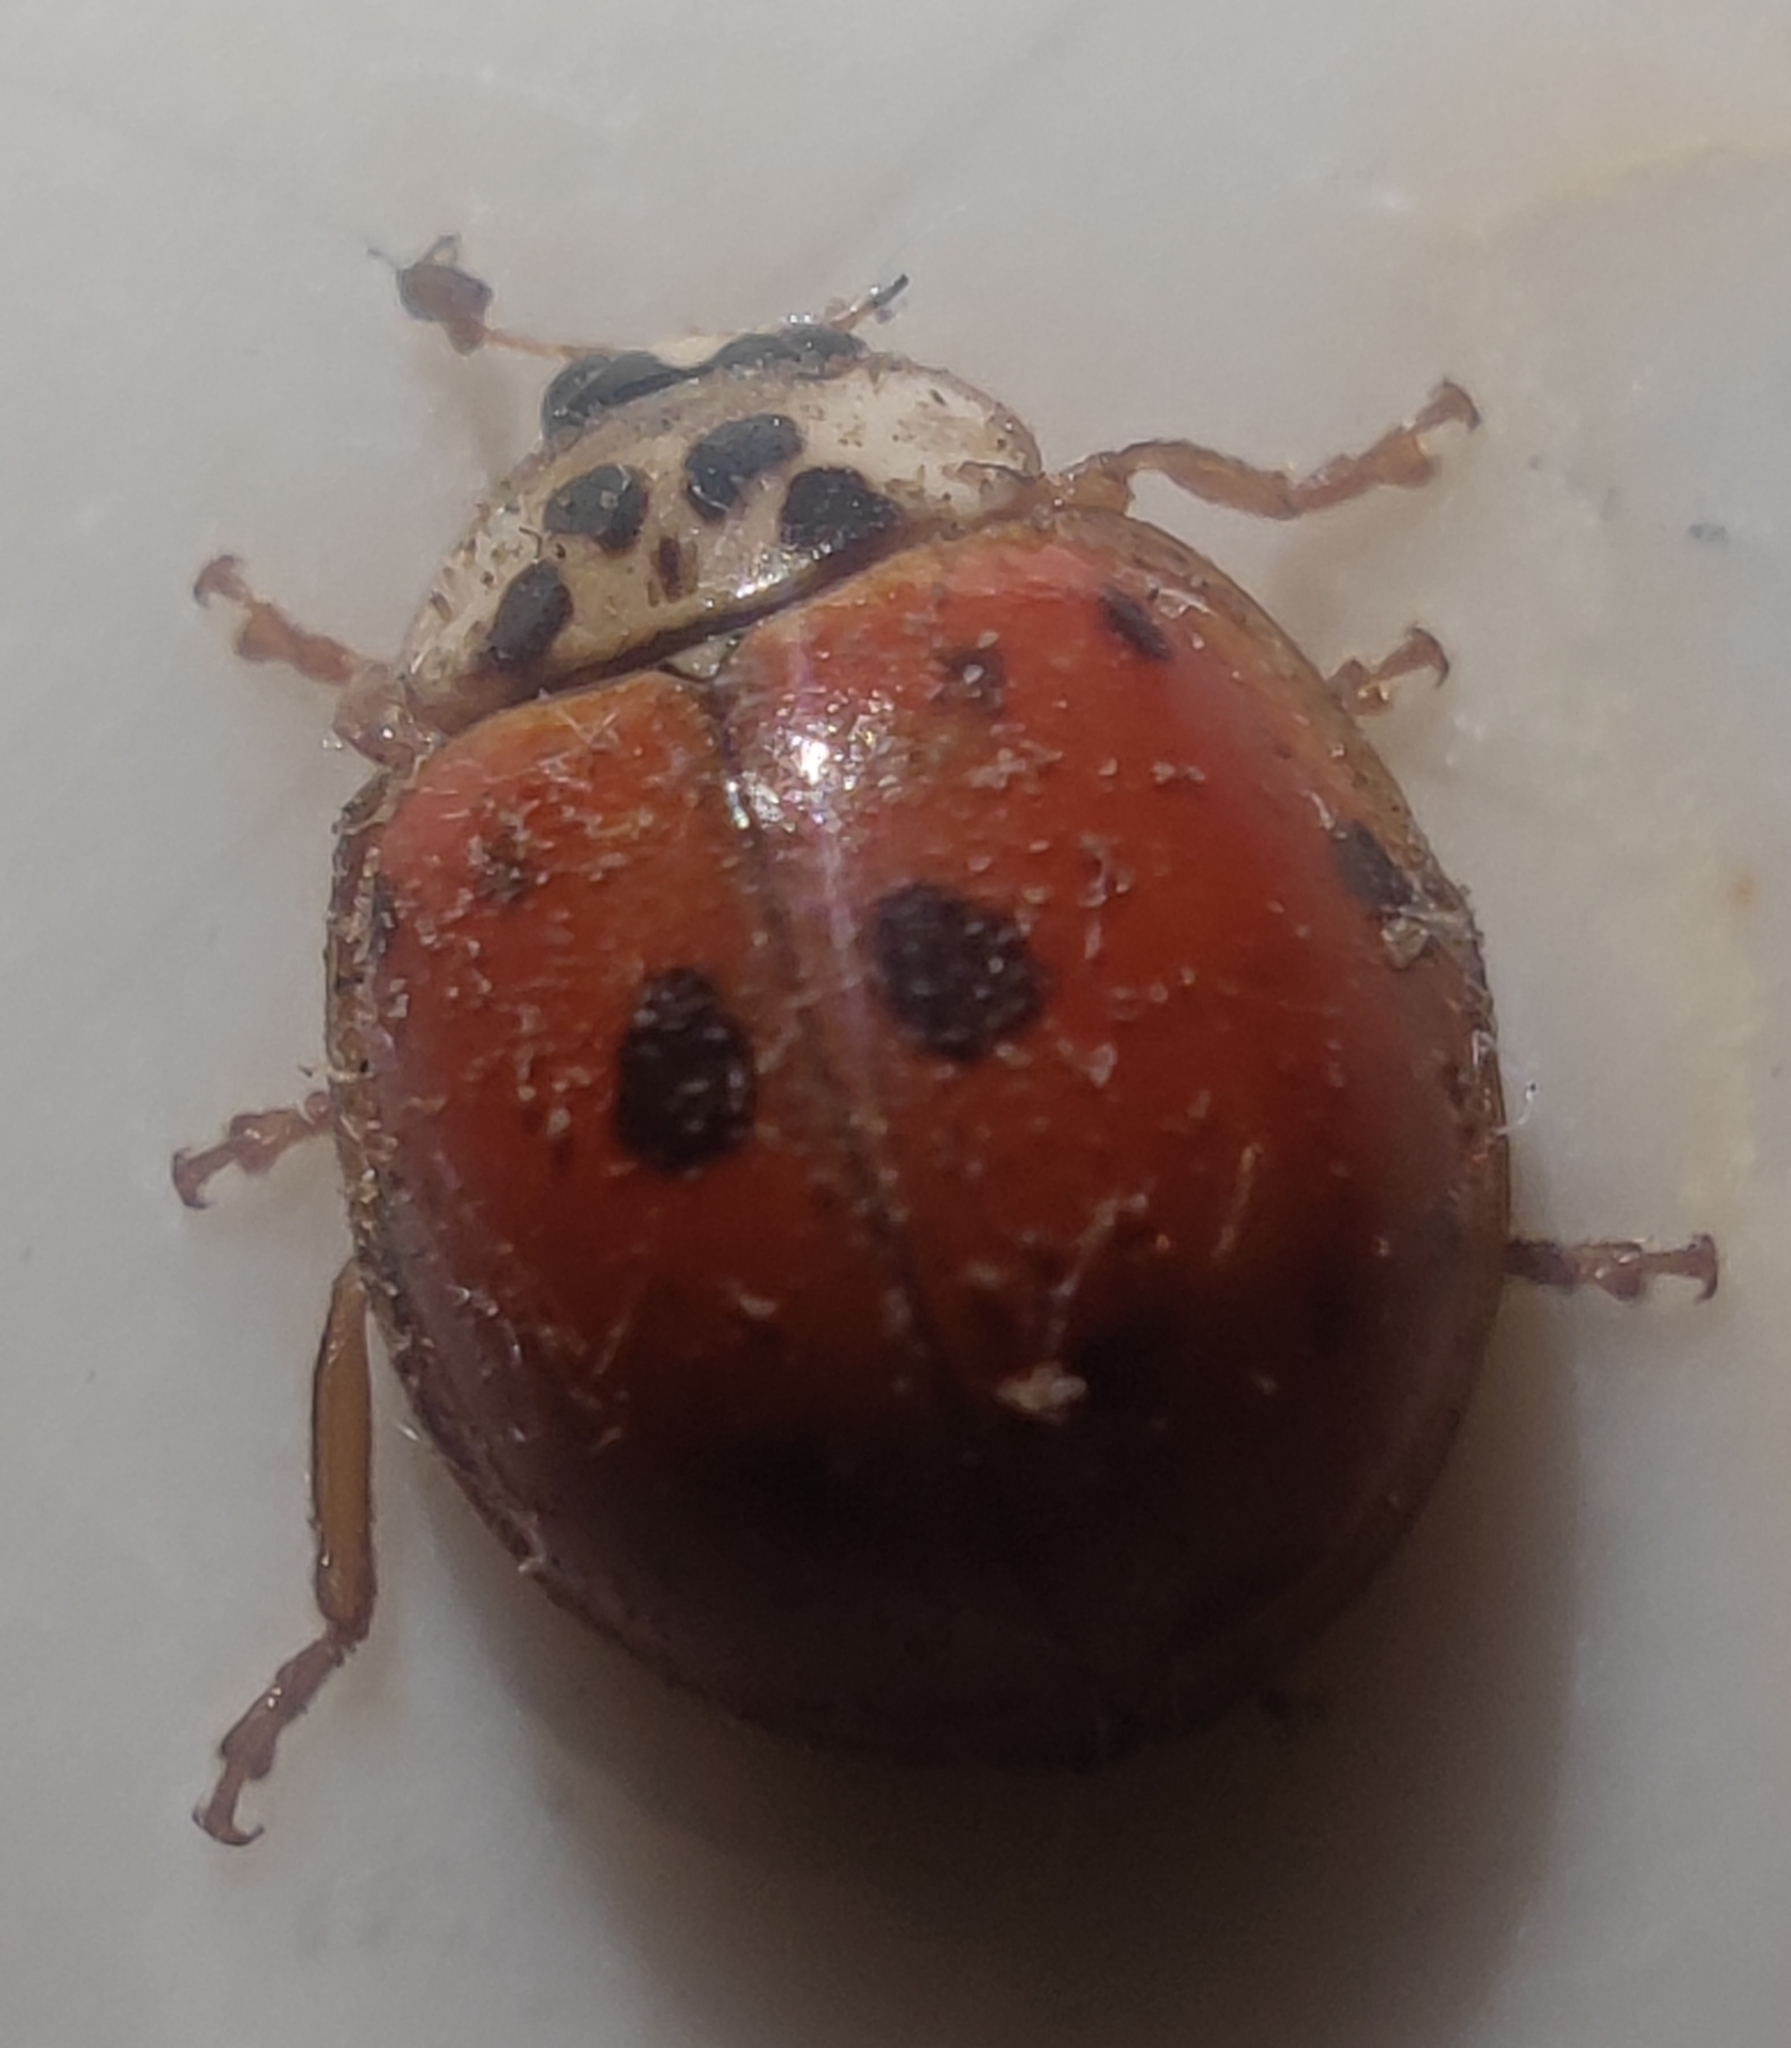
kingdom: Animalia
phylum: Arthropoda
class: Insecta
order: Coleoptera
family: Coccinellidae
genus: Harmonia
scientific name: Harmonia axyridis
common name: Harlequin ladybird
